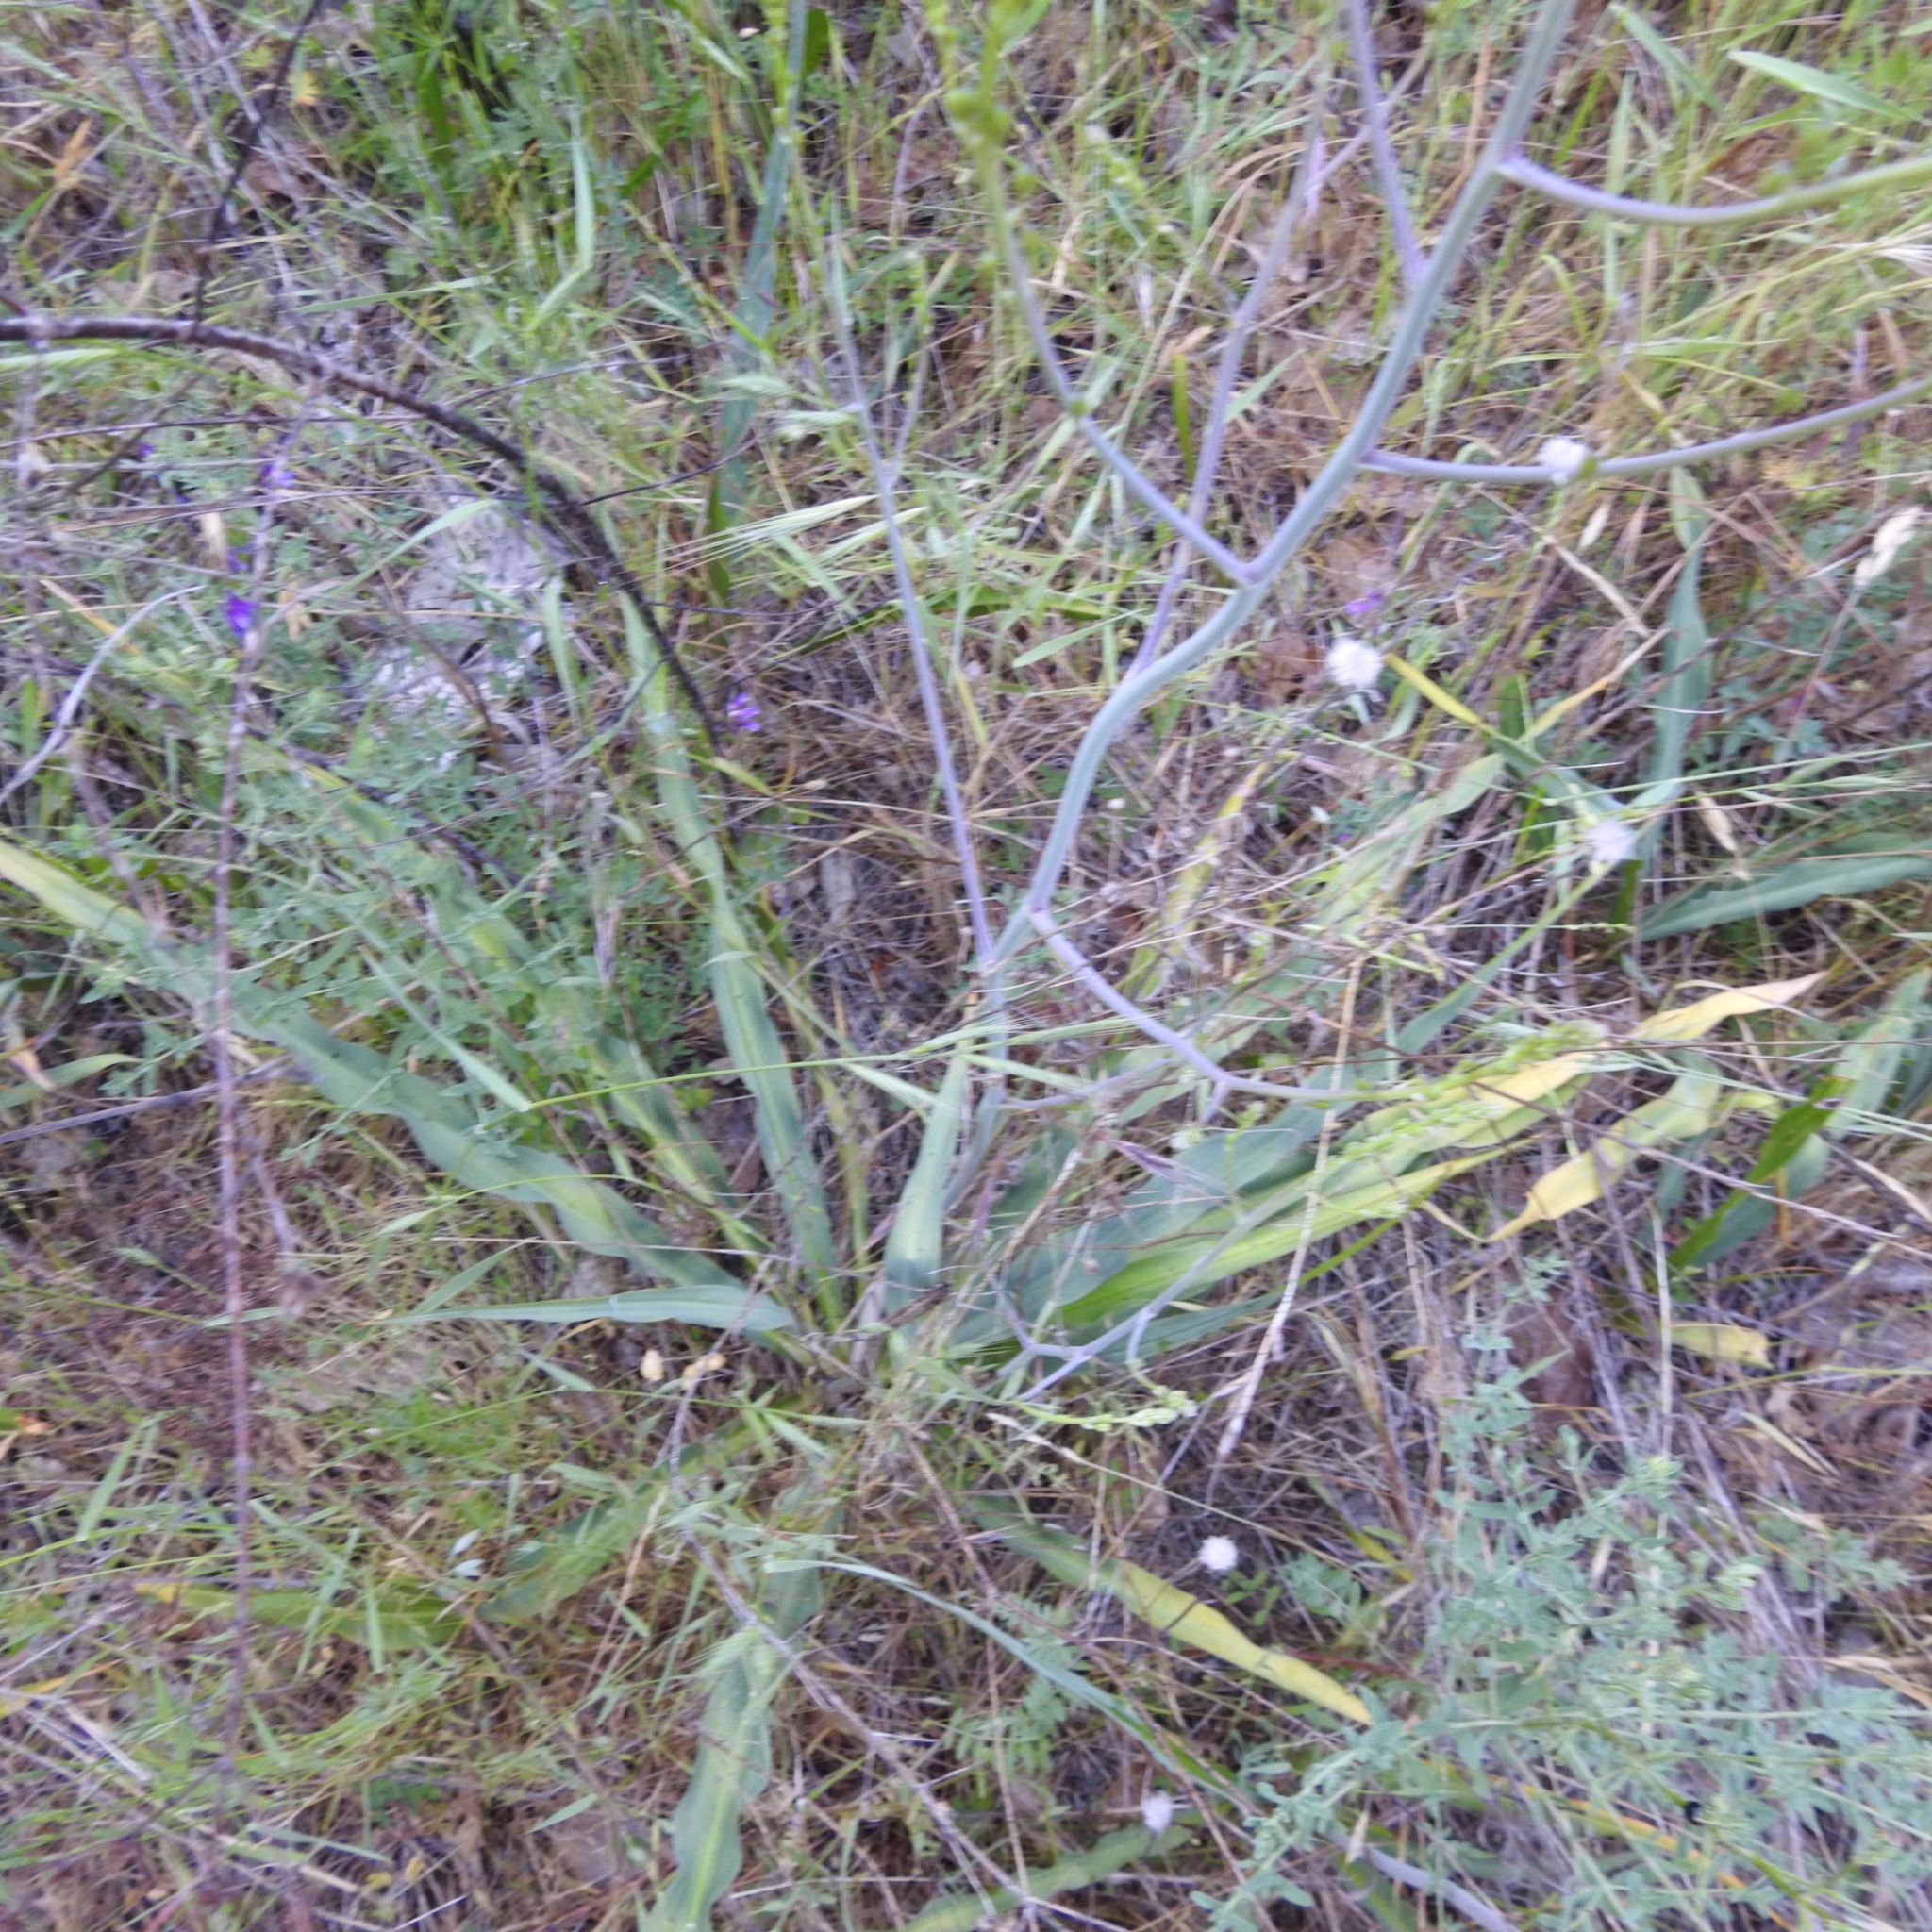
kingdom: Plantae
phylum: Tracheophyta
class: Liliopsida
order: Asparagales
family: Asparagaceae
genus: Chlorogalum
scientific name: Chlorogalum pomeridianum
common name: Amole
